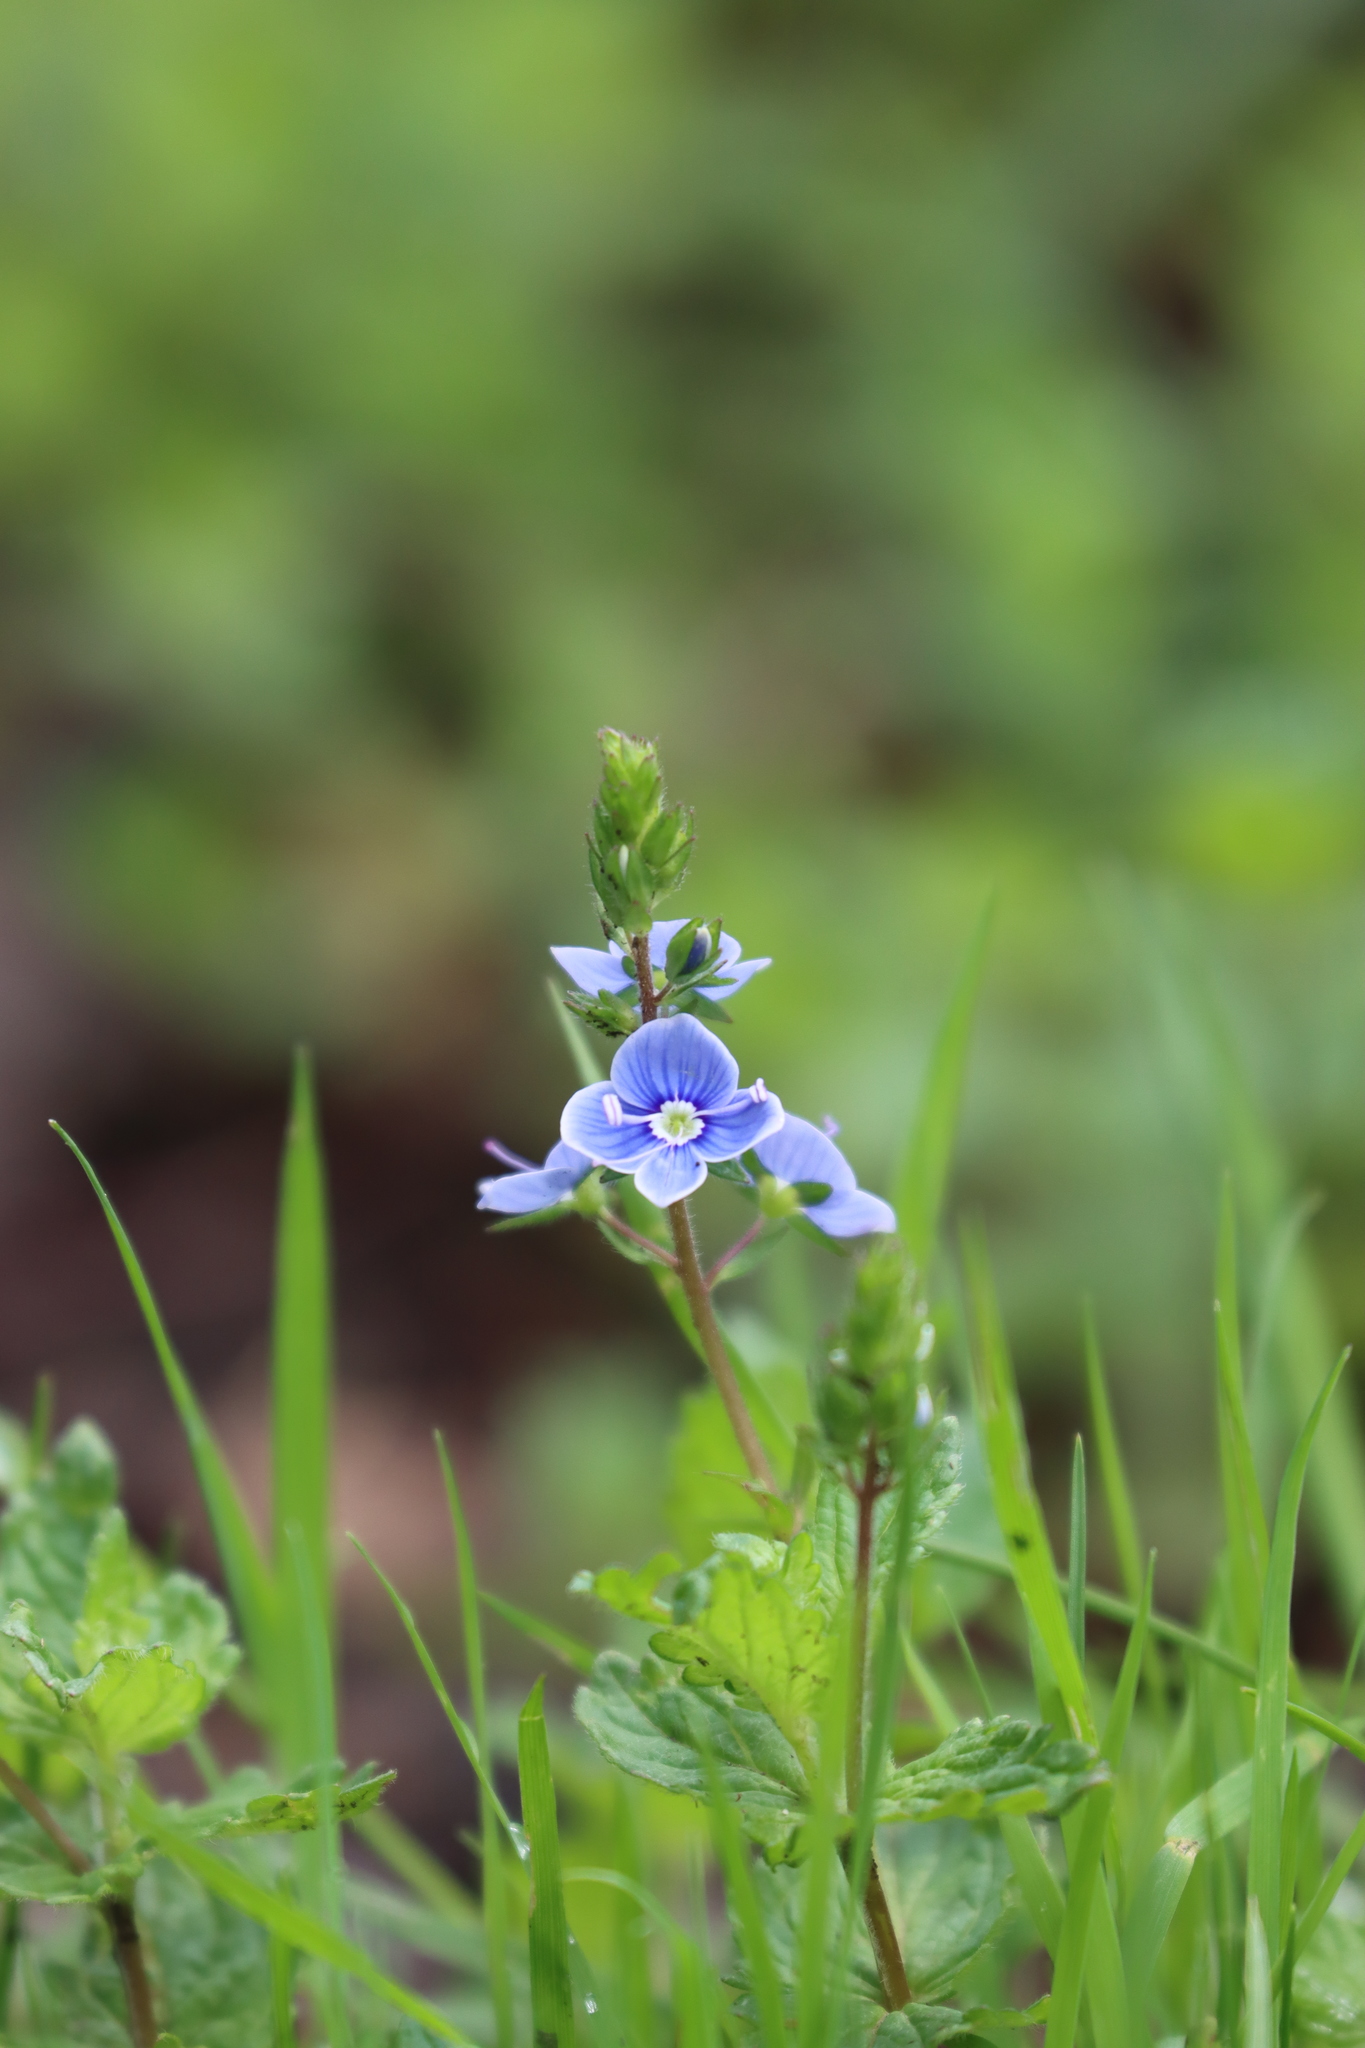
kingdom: Plantae
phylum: Tracheophyta
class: Magnoliopsida
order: Lamiales
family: Plantaginaceae
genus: Veronica
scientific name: Veronica chamaedrys
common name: Germander speedwell
